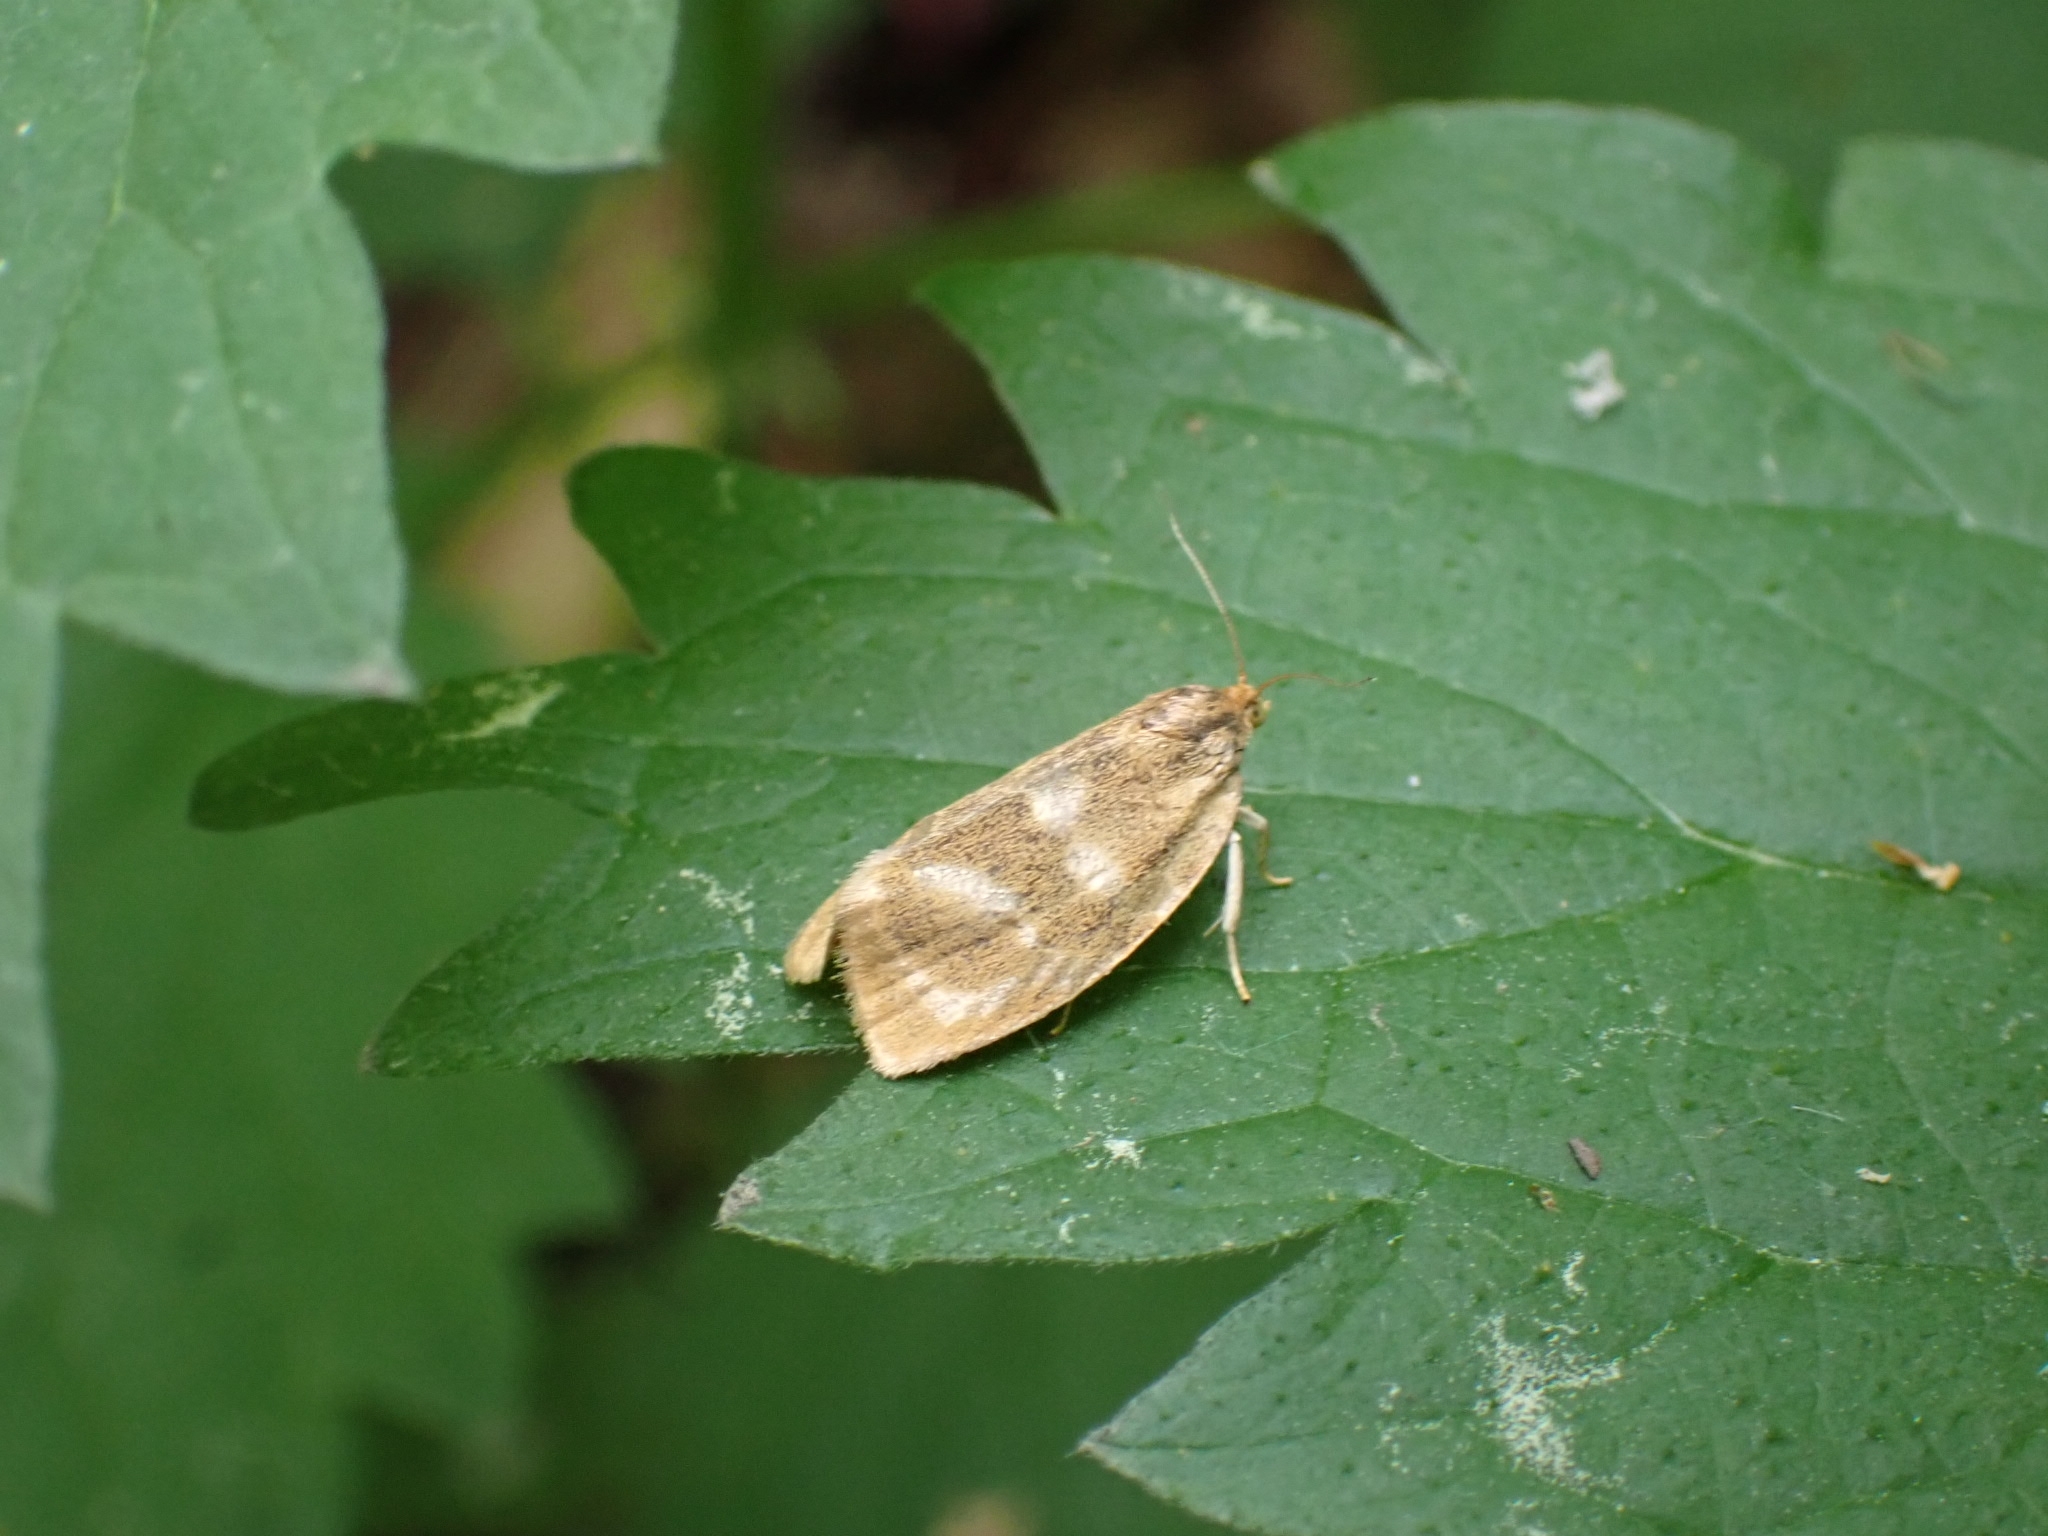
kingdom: Animalia
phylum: Arthropoda
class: Insecta
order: Lepidoptera
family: Tortricidae
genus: Ptycholoma
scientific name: Ptycholoma lecheana
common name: Leches twist moth
